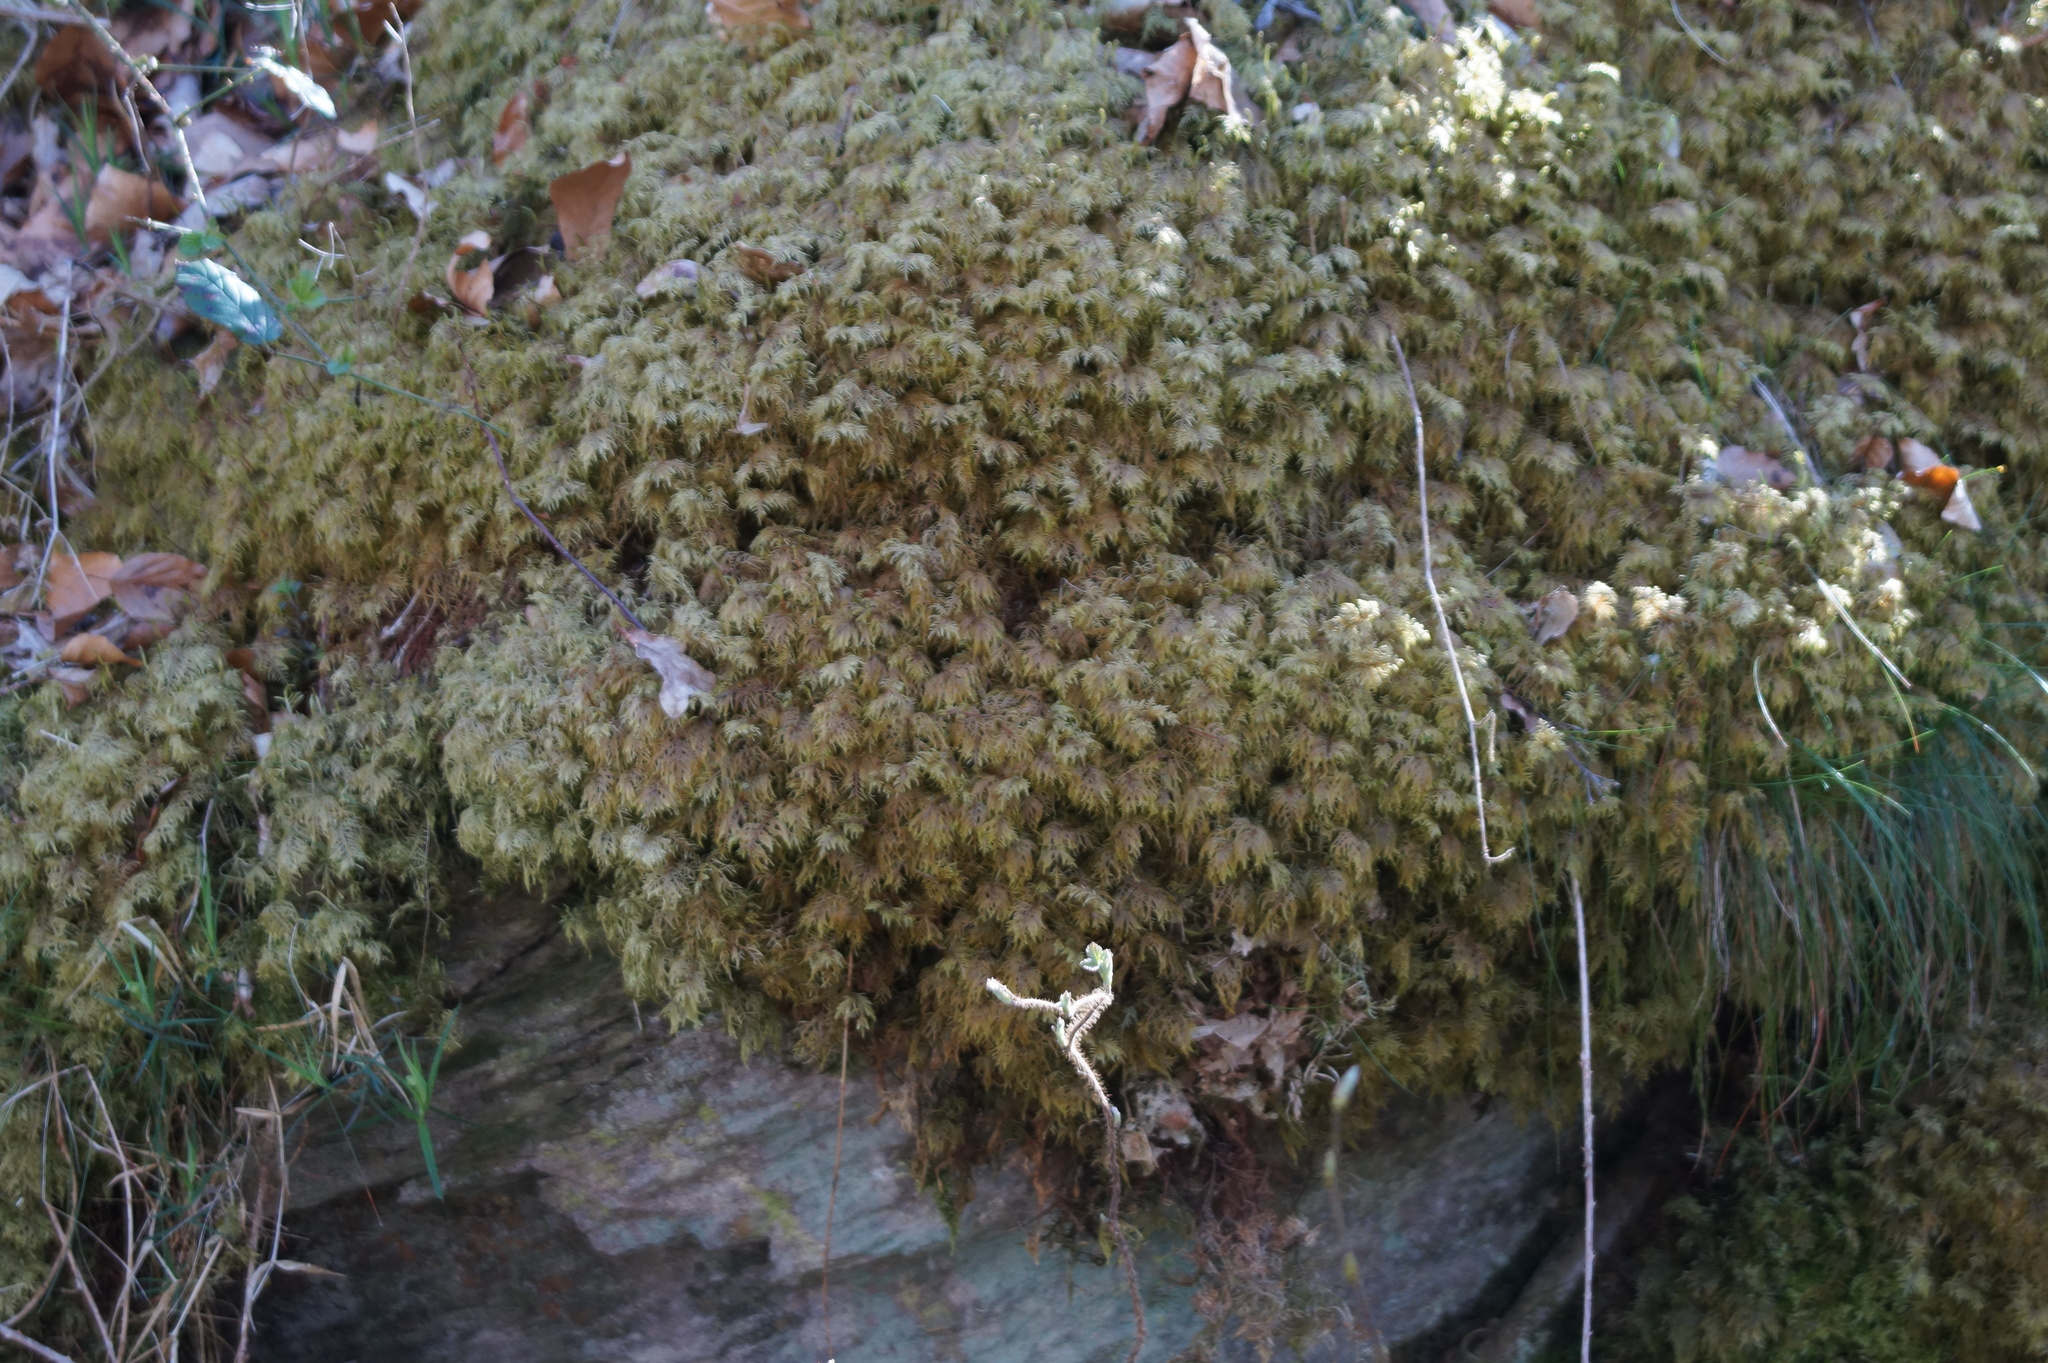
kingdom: Plantae
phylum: Bryophyta
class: Bryopsida
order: Hypnales
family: Hylocomiaceae
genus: Hylocomium
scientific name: Hylocomium splendens
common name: Stairstep moss
